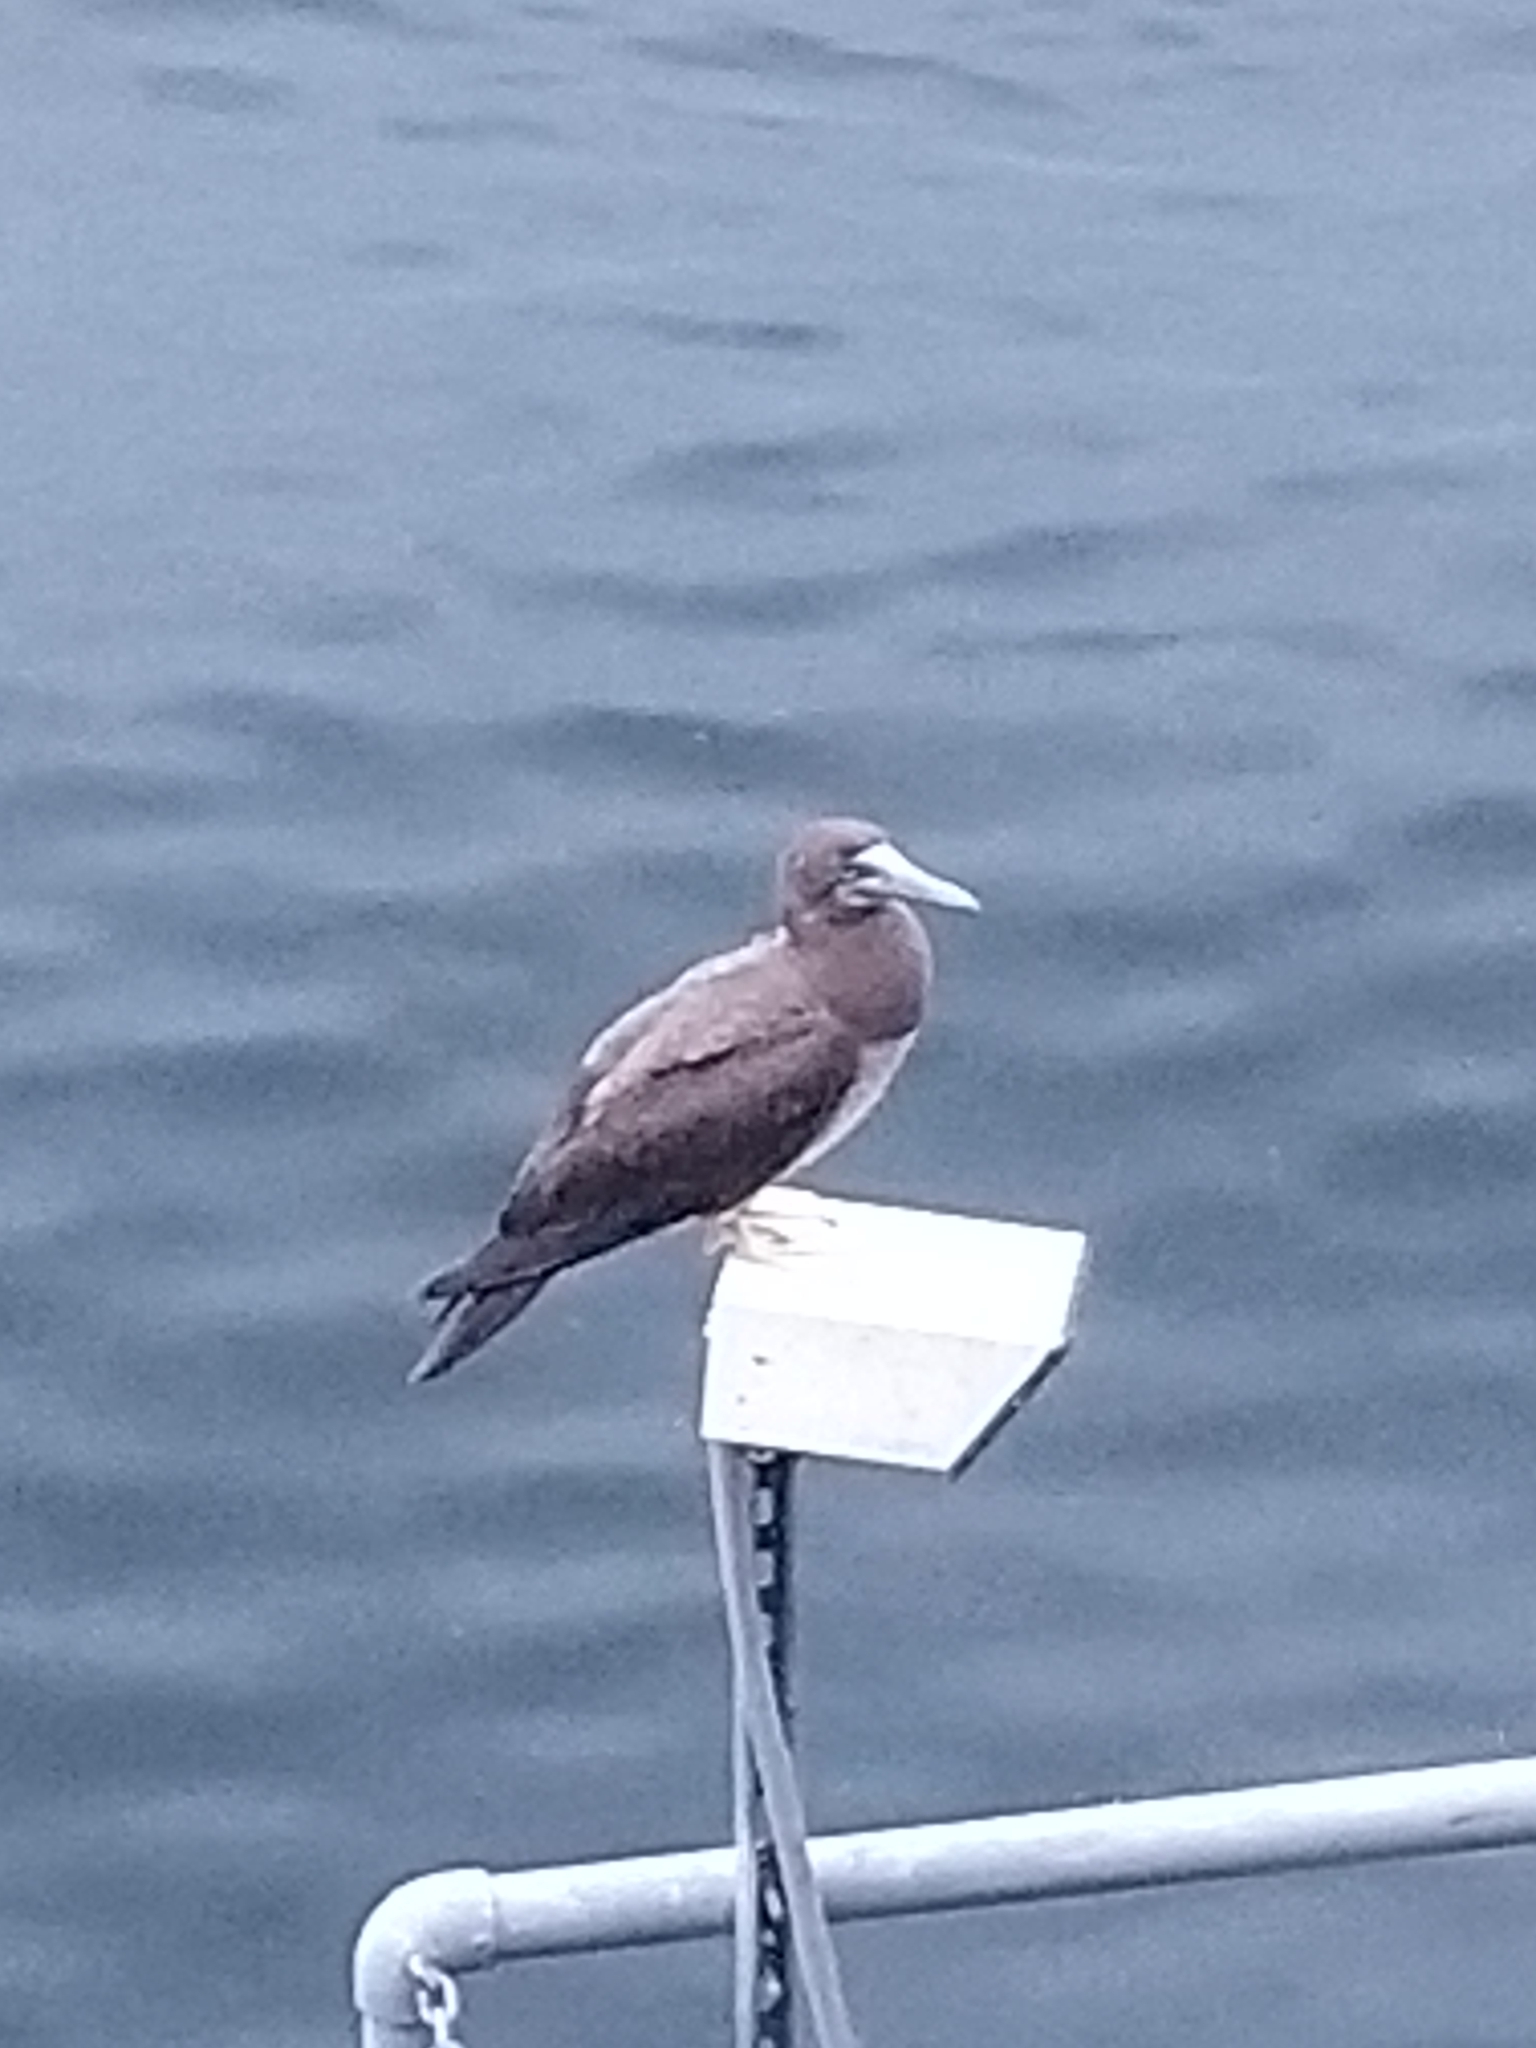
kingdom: Animalia
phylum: Chordata
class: Aves
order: Suliformes
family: Sulidae
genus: Sula
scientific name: Sula leucogaster
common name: Brown booby
